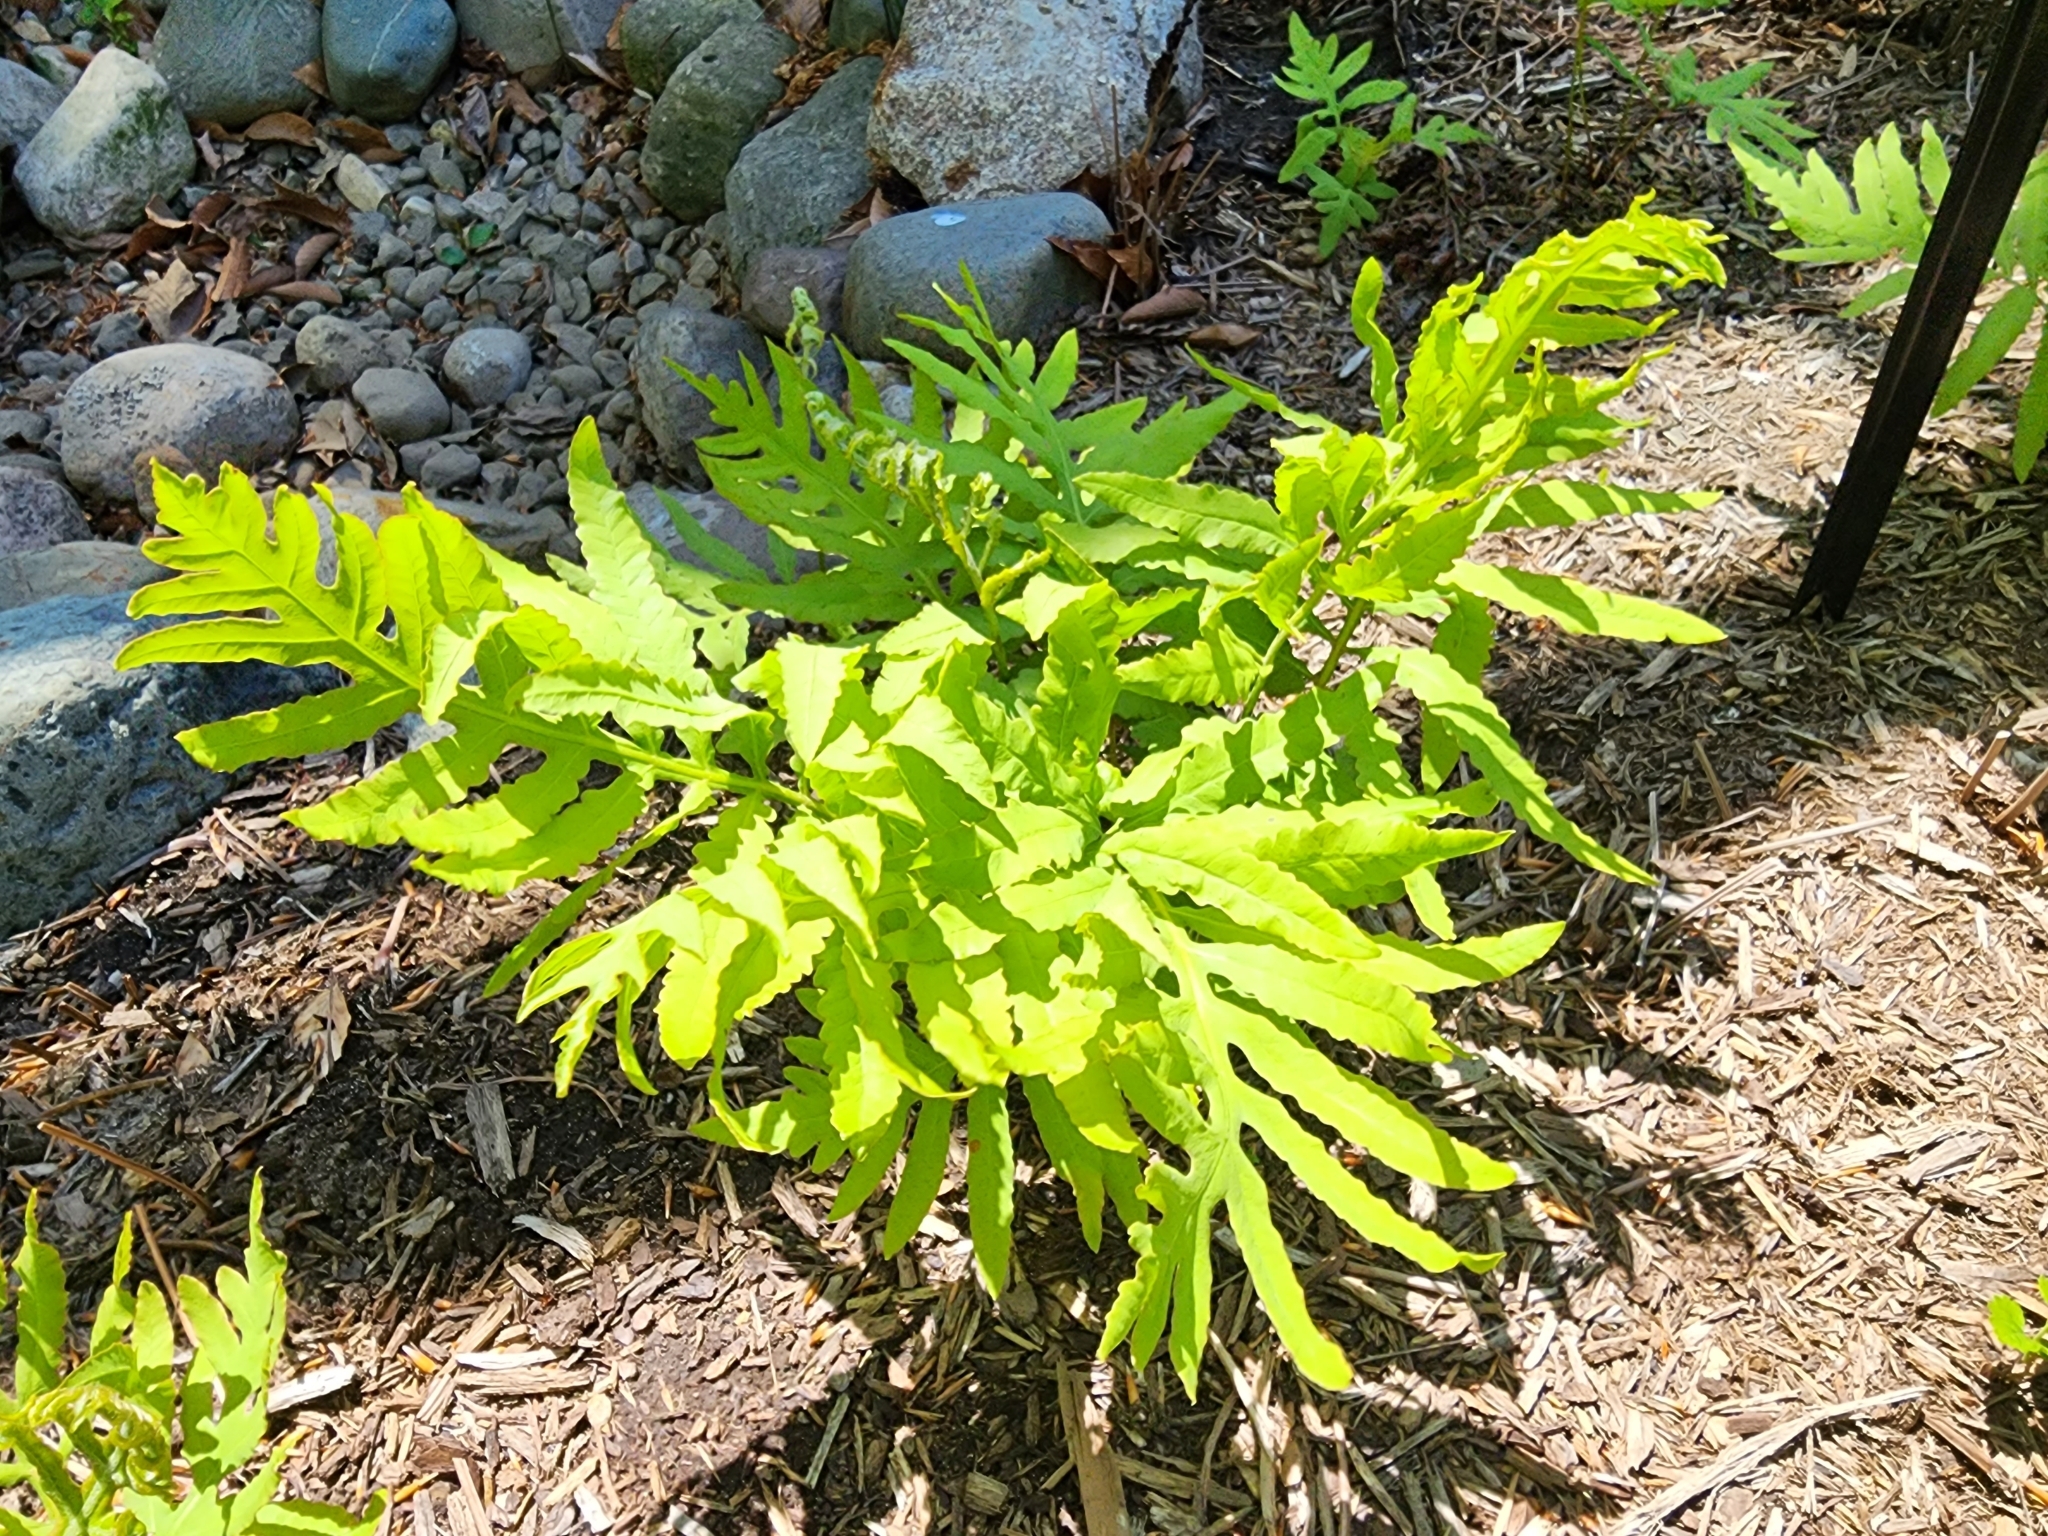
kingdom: Plantae
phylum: Tracheophyta
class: Polypodiopsida
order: Polypodiales
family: Onocleaceae
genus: Onoclea
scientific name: Onoclea sensibilis
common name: Sensitive fern
